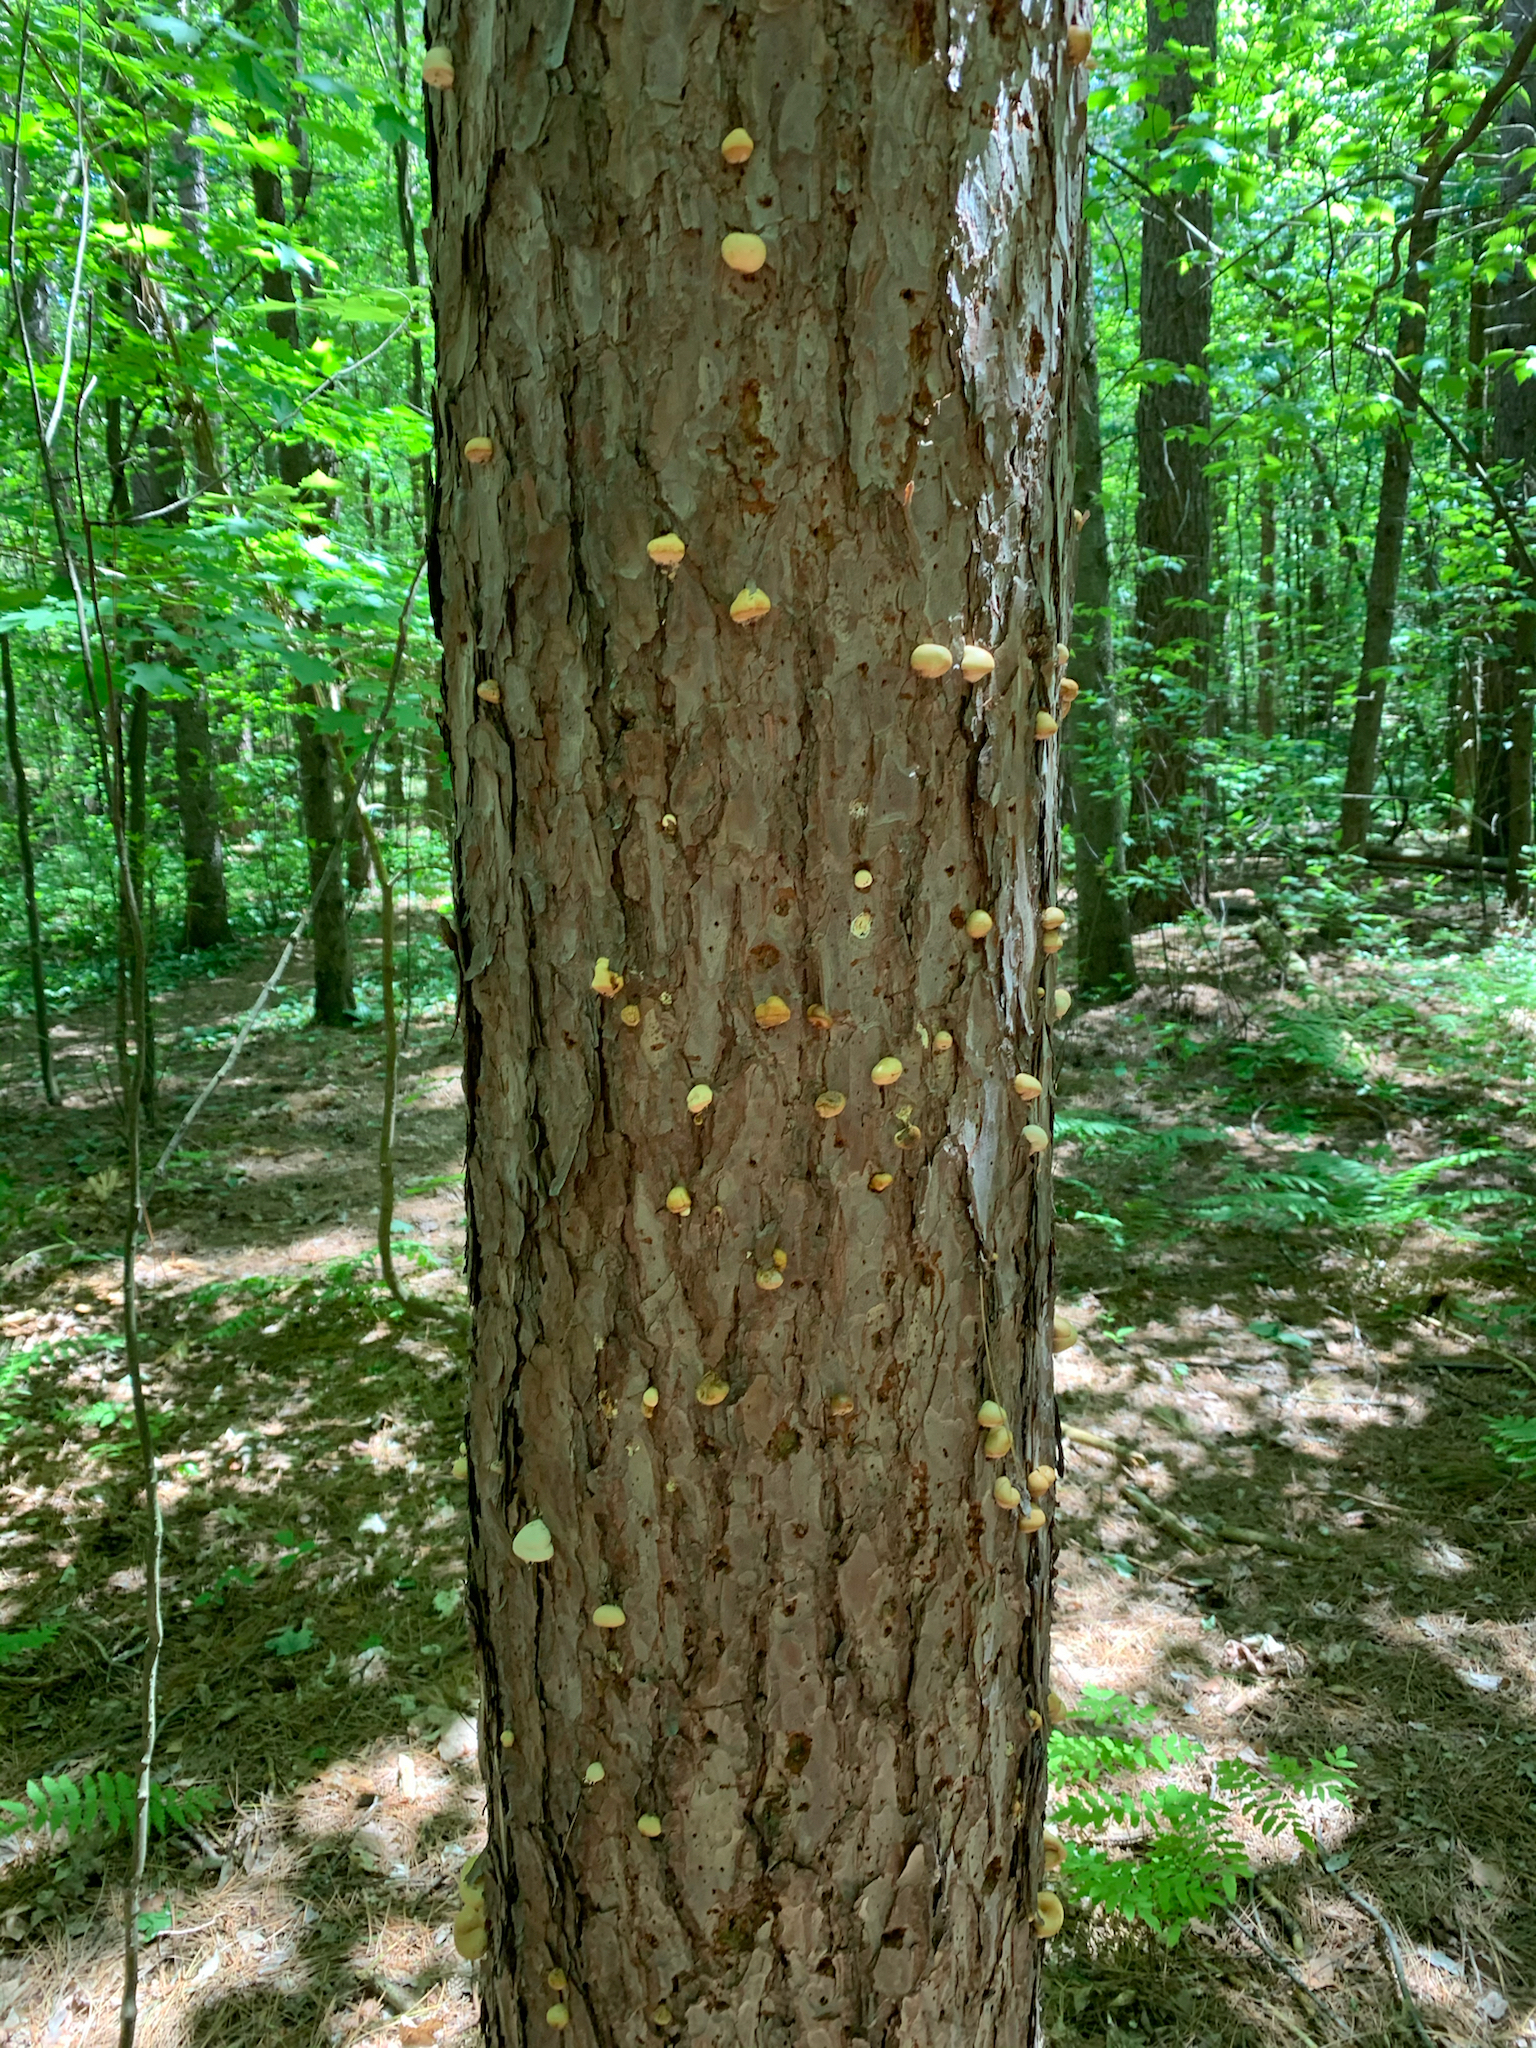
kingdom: Fungi
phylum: Basidiomycota
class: Agaricomycetes
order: Polyporales
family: Polyporaceae
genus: Cryptoporus
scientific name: Cryptoporus volvatus
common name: Veiled polypore
